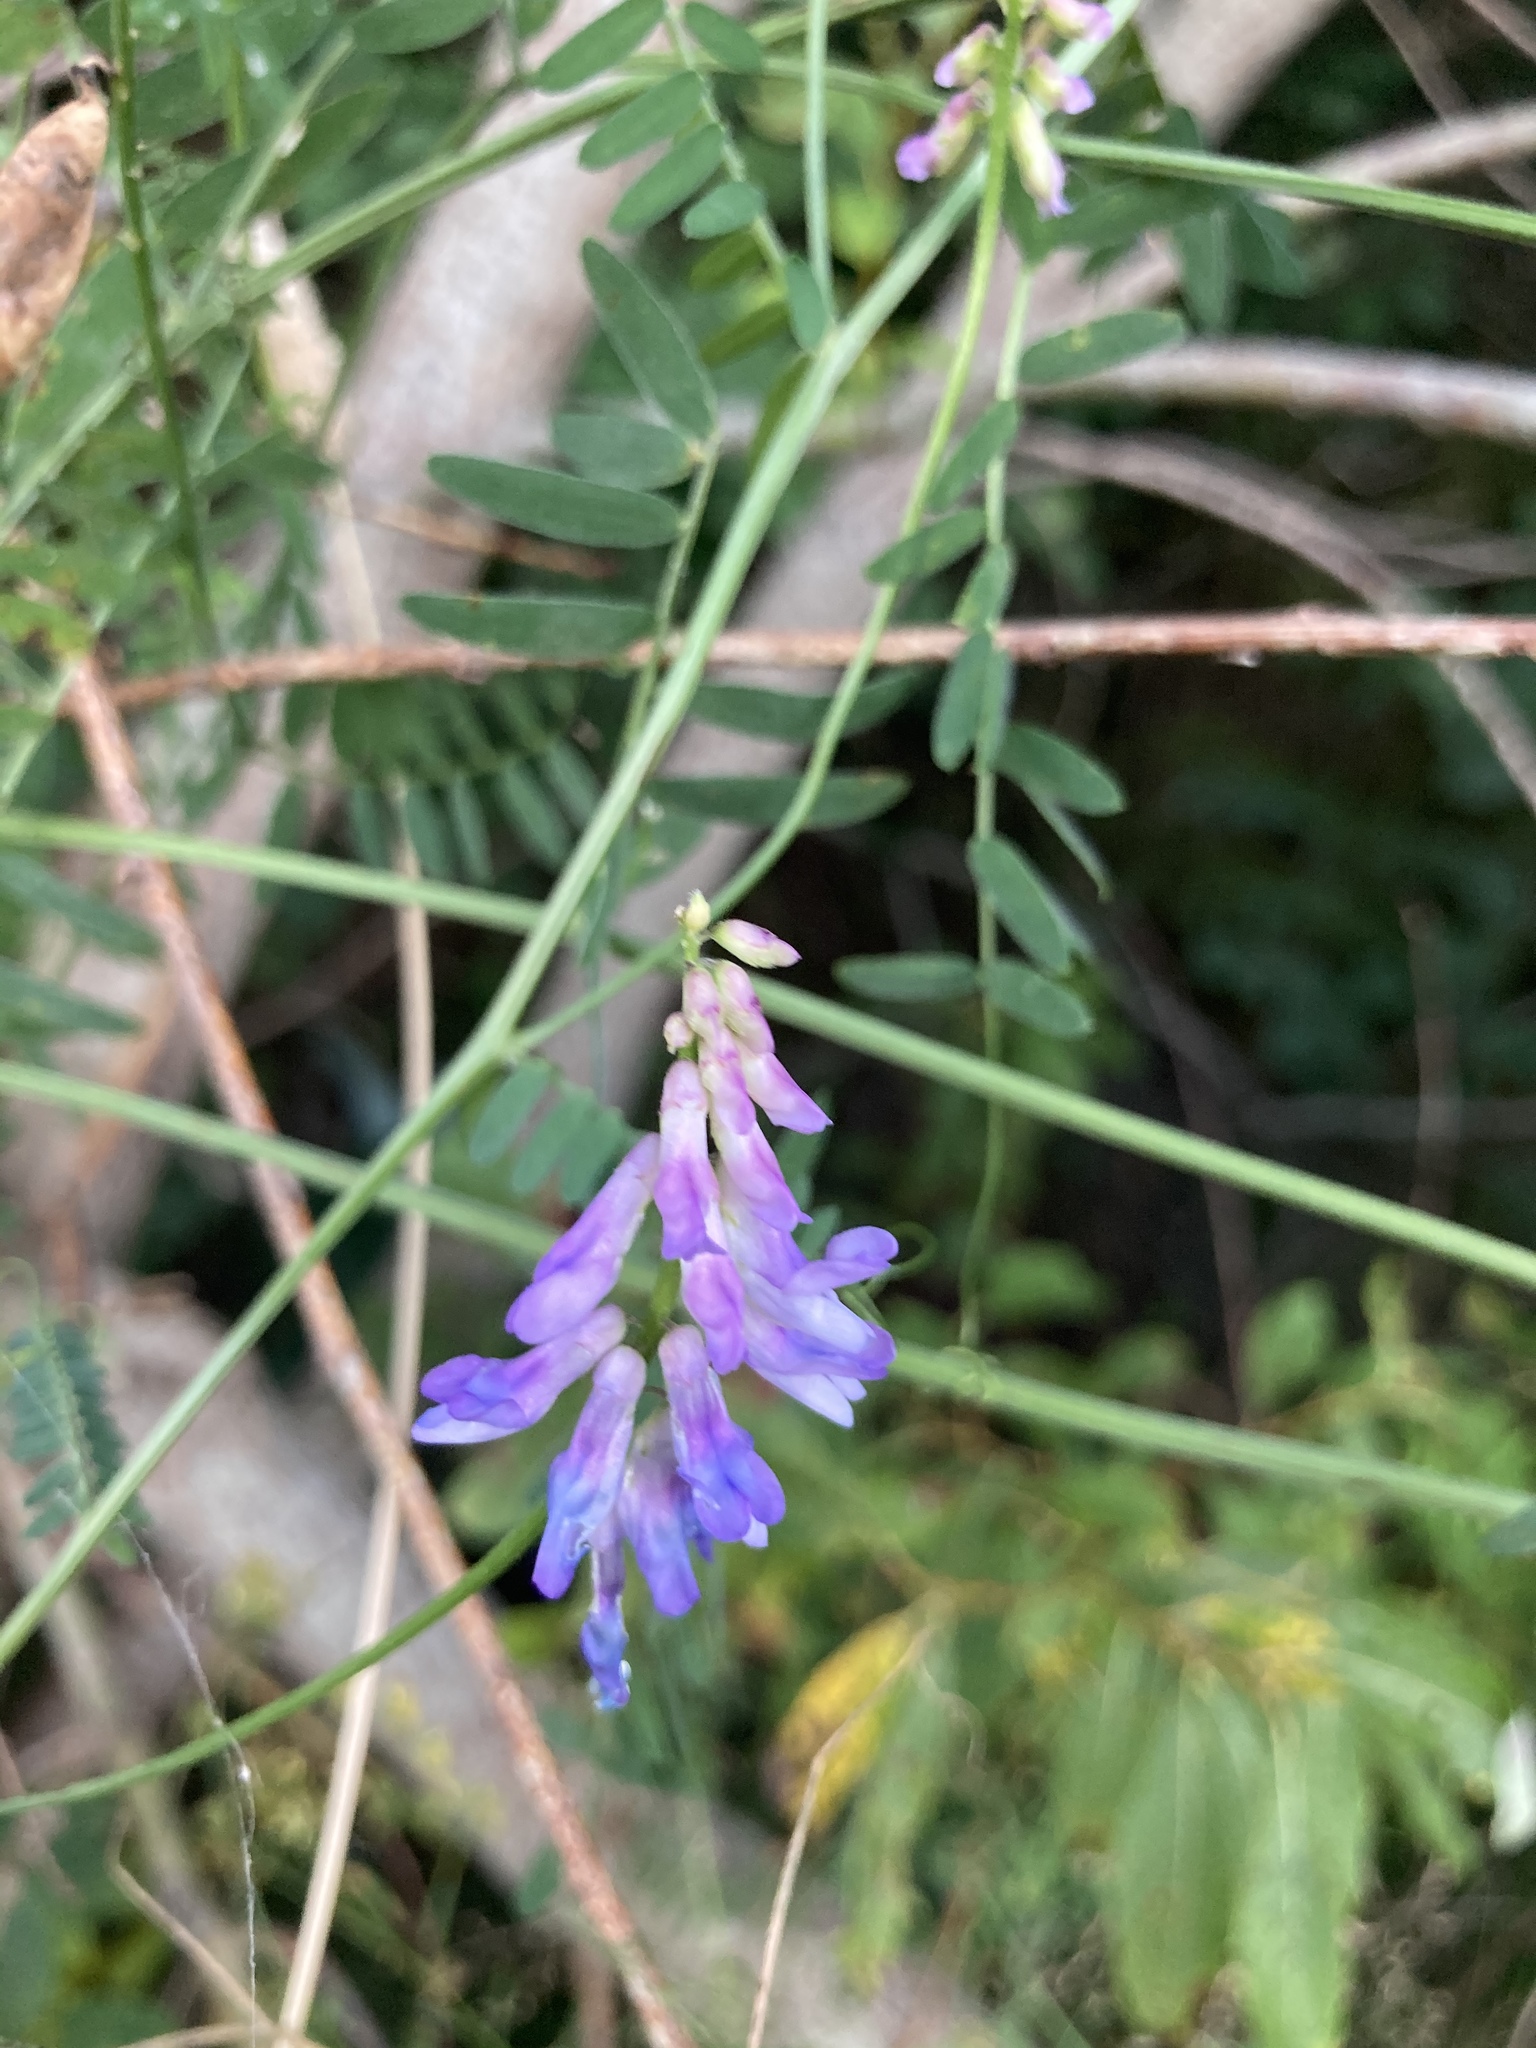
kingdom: Plantae
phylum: Tracheophyta
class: Magnoliopsida
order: Fabales
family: Fabaceae
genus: Vicia
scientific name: Vicia cracca
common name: Bird vetch
